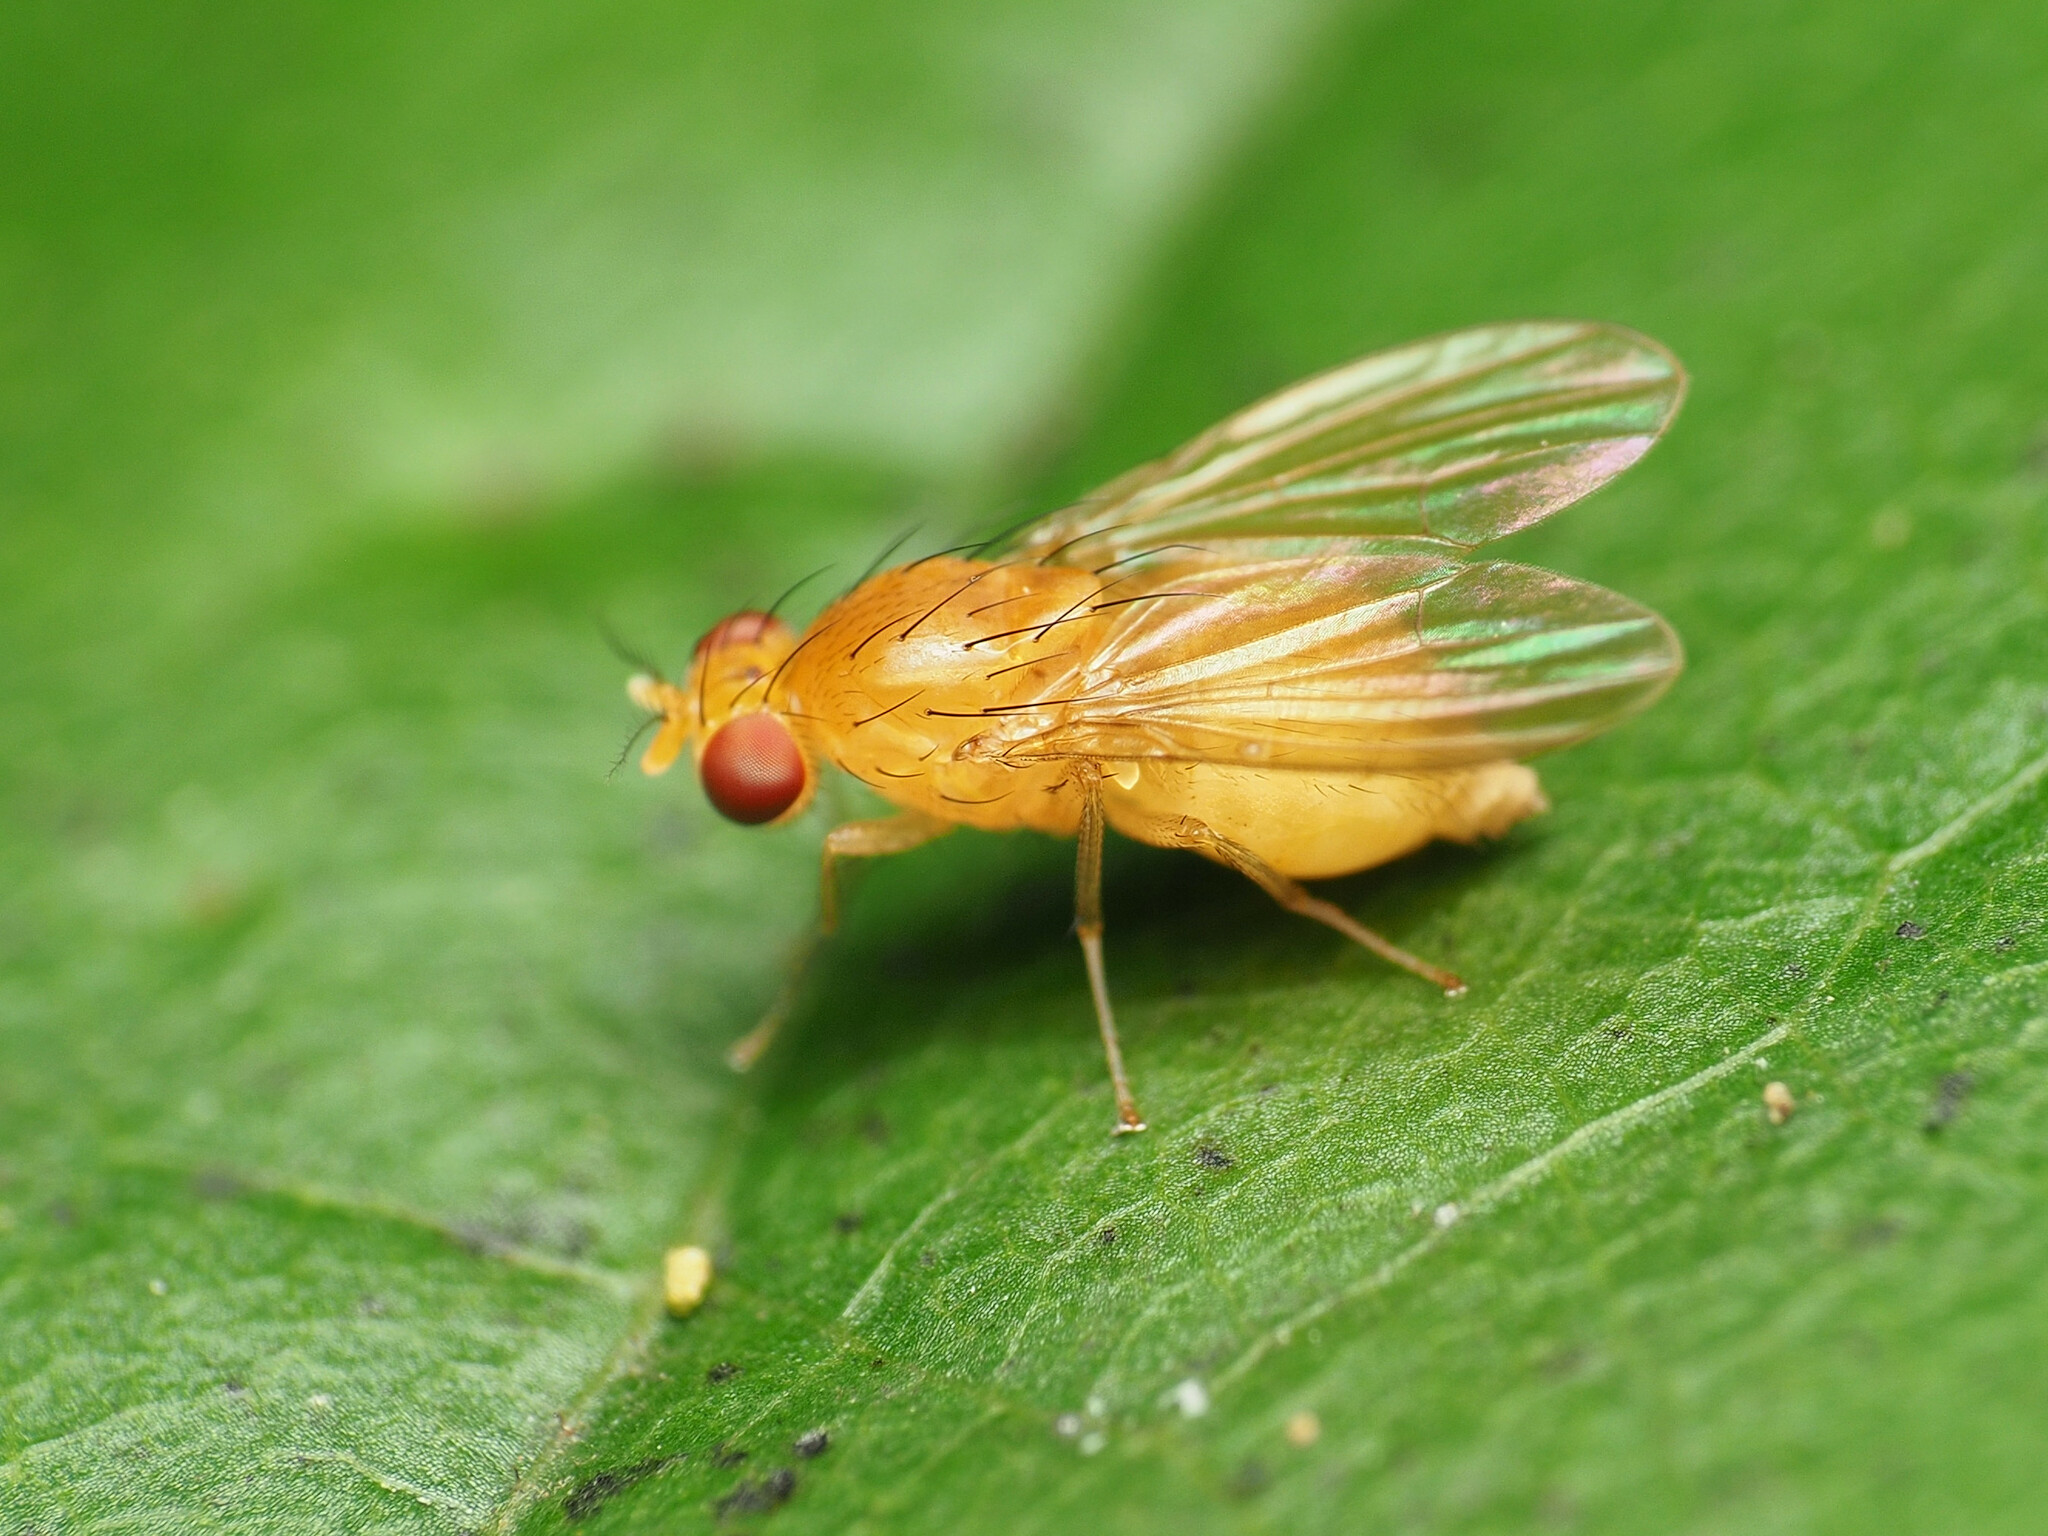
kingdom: Animalia
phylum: Arthropoda
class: Insecta
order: Diptera
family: Lauxaniidae
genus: Neogriphoneura
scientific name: Neogriphoneura sordida
